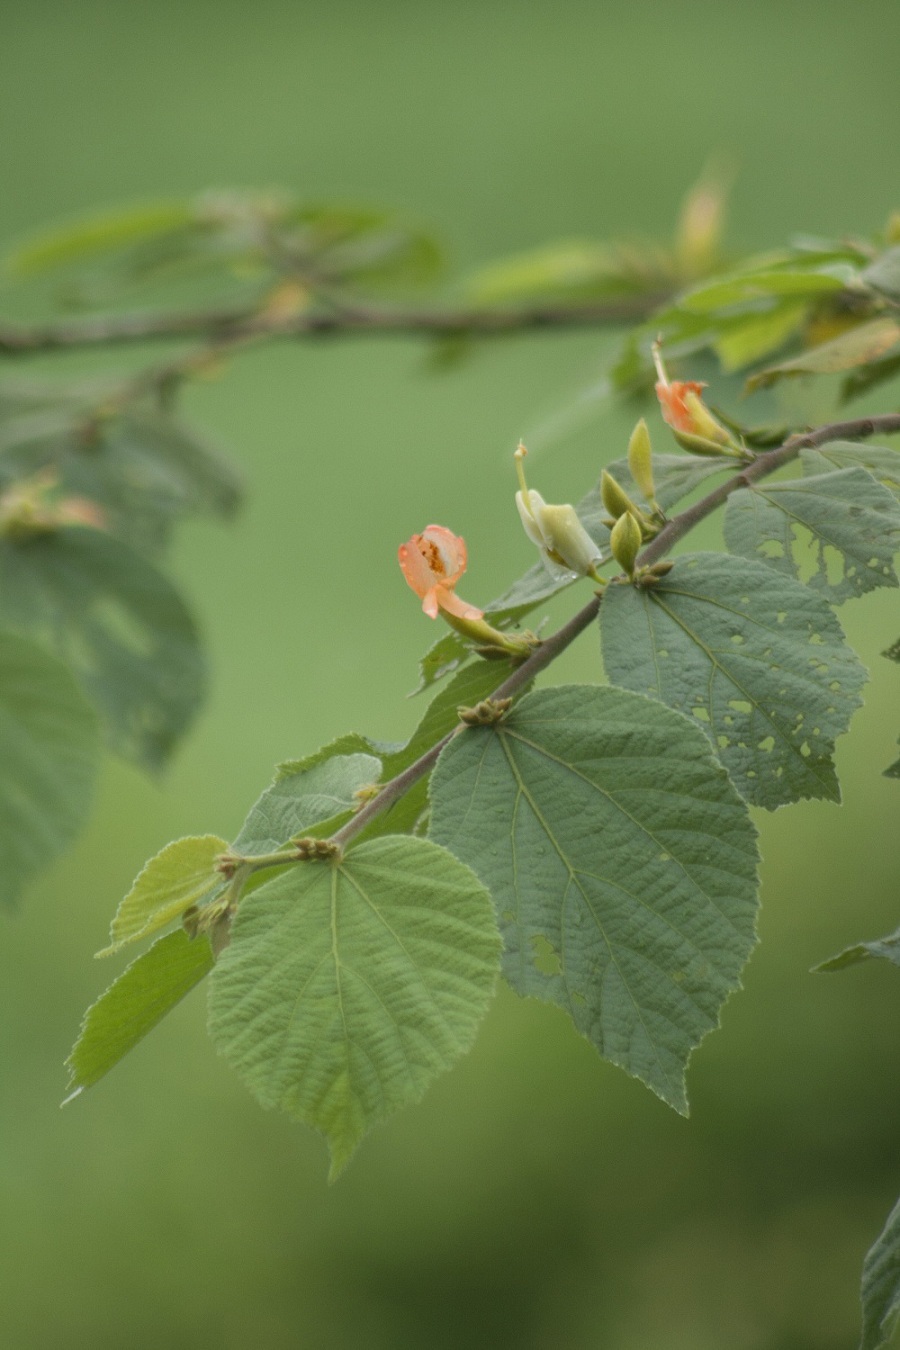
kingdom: Plantae
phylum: Tracheophyta
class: Magnoliopsida
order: Malvales
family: Malvaceae
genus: Helicteres
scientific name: Helicteres isora
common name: East indian screwtree
